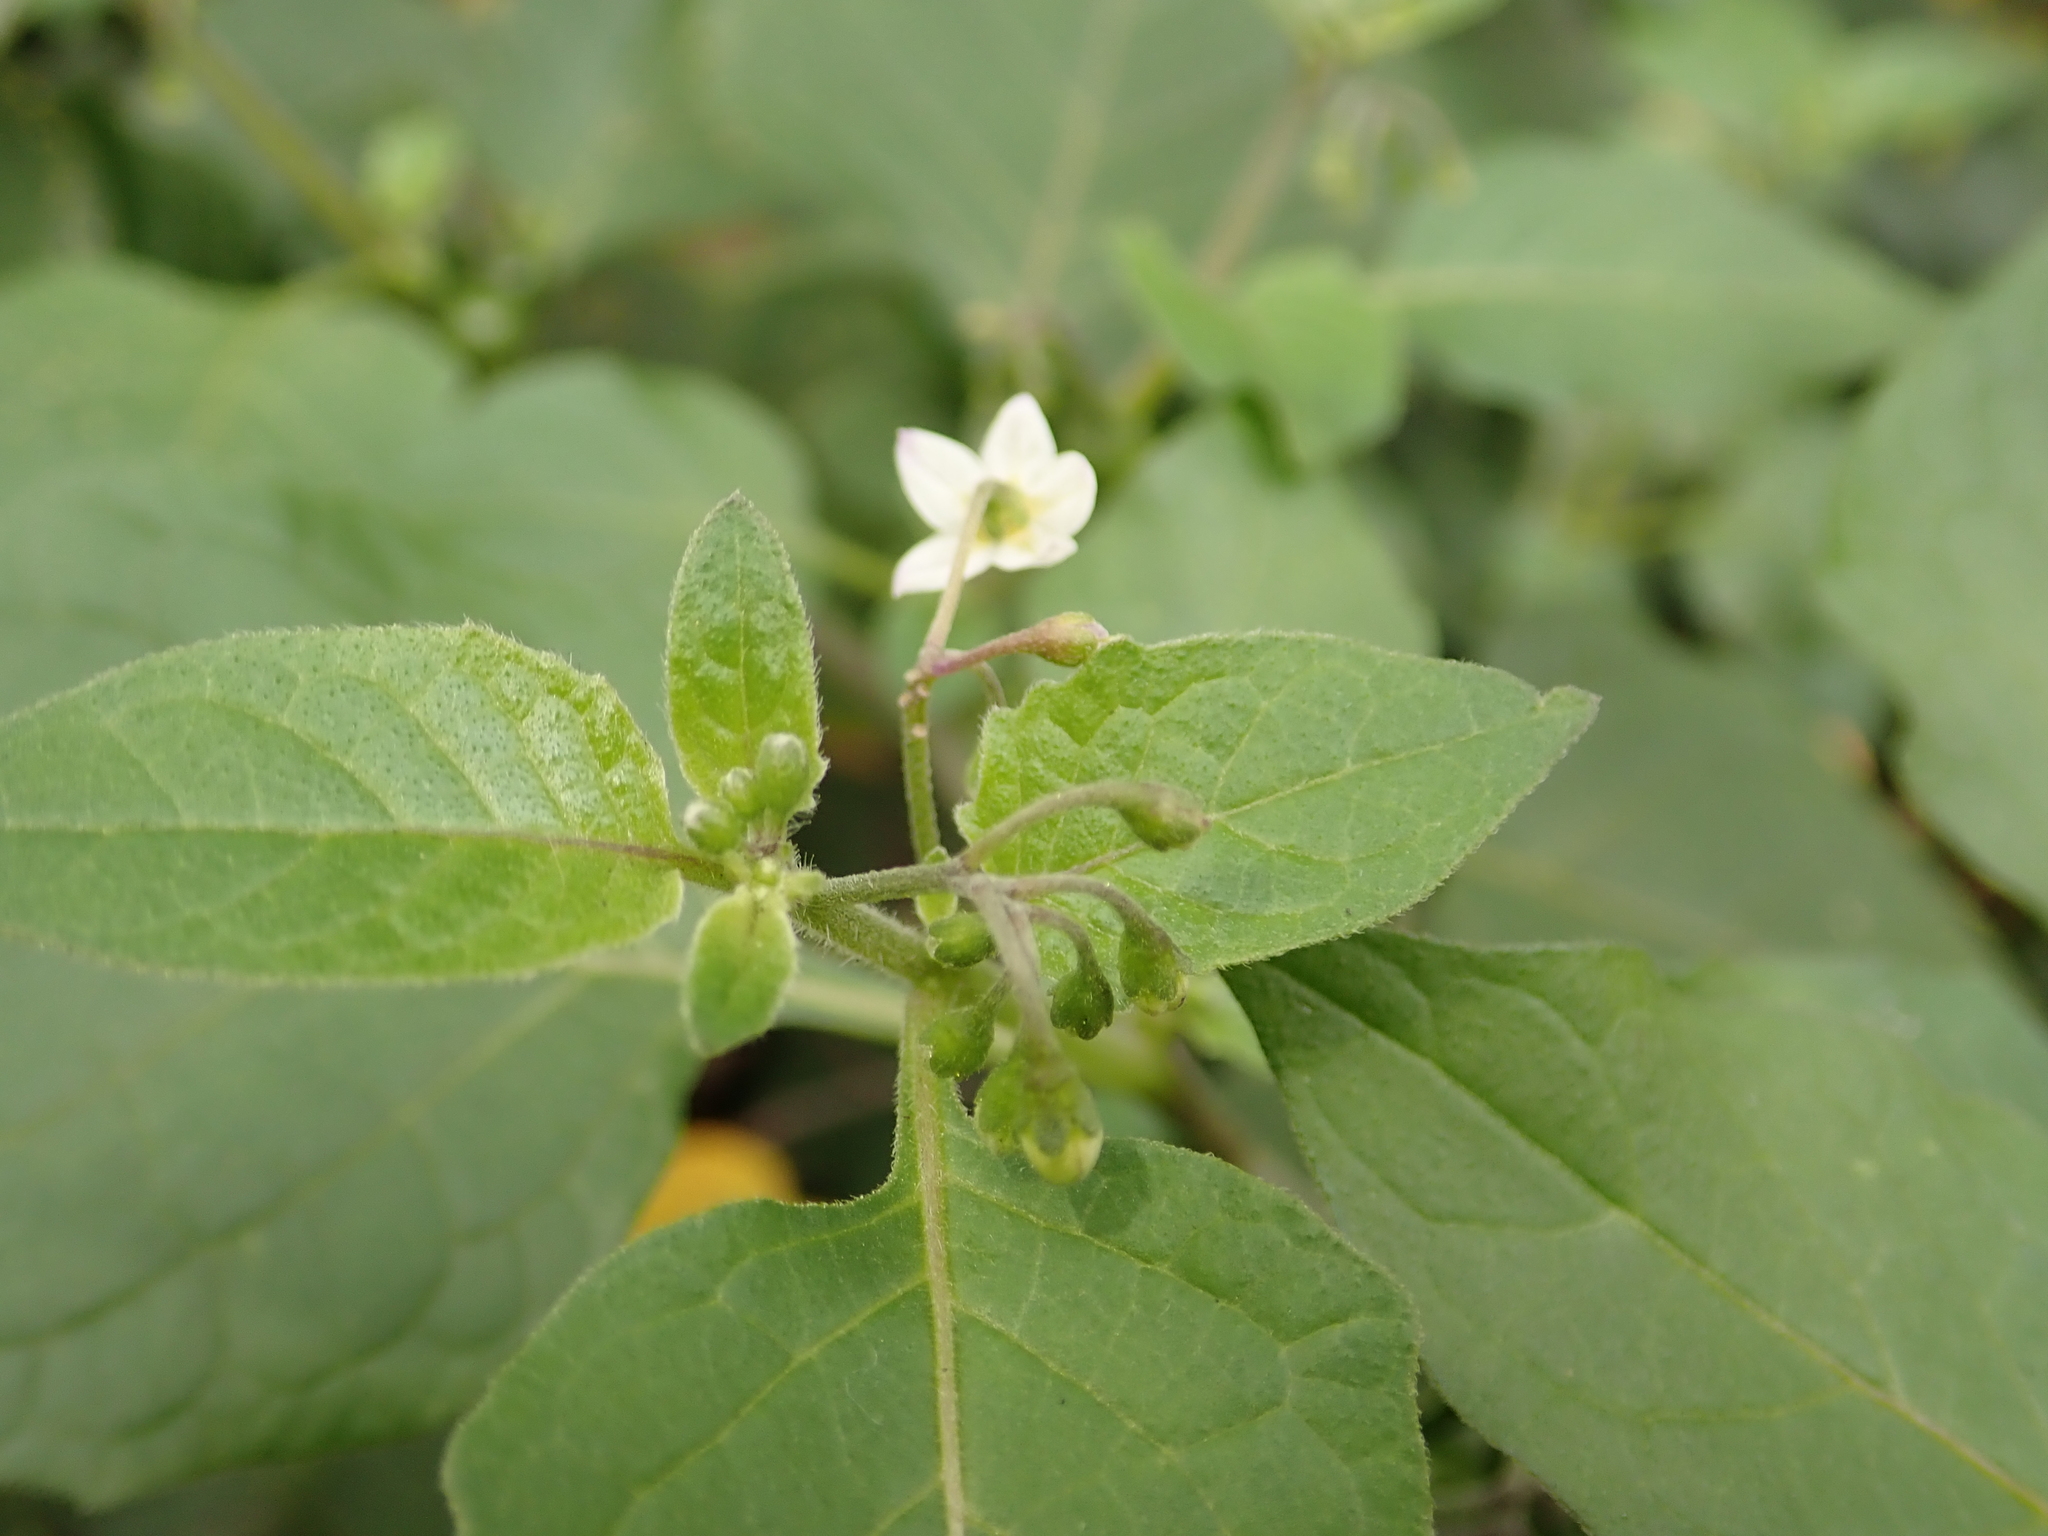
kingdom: Plantae
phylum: Tracheophyta
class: Magnoliopsida
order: Solanales
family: Solanaceae
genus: Solanum
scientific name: Solanum nigrum
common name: Black nightshade
